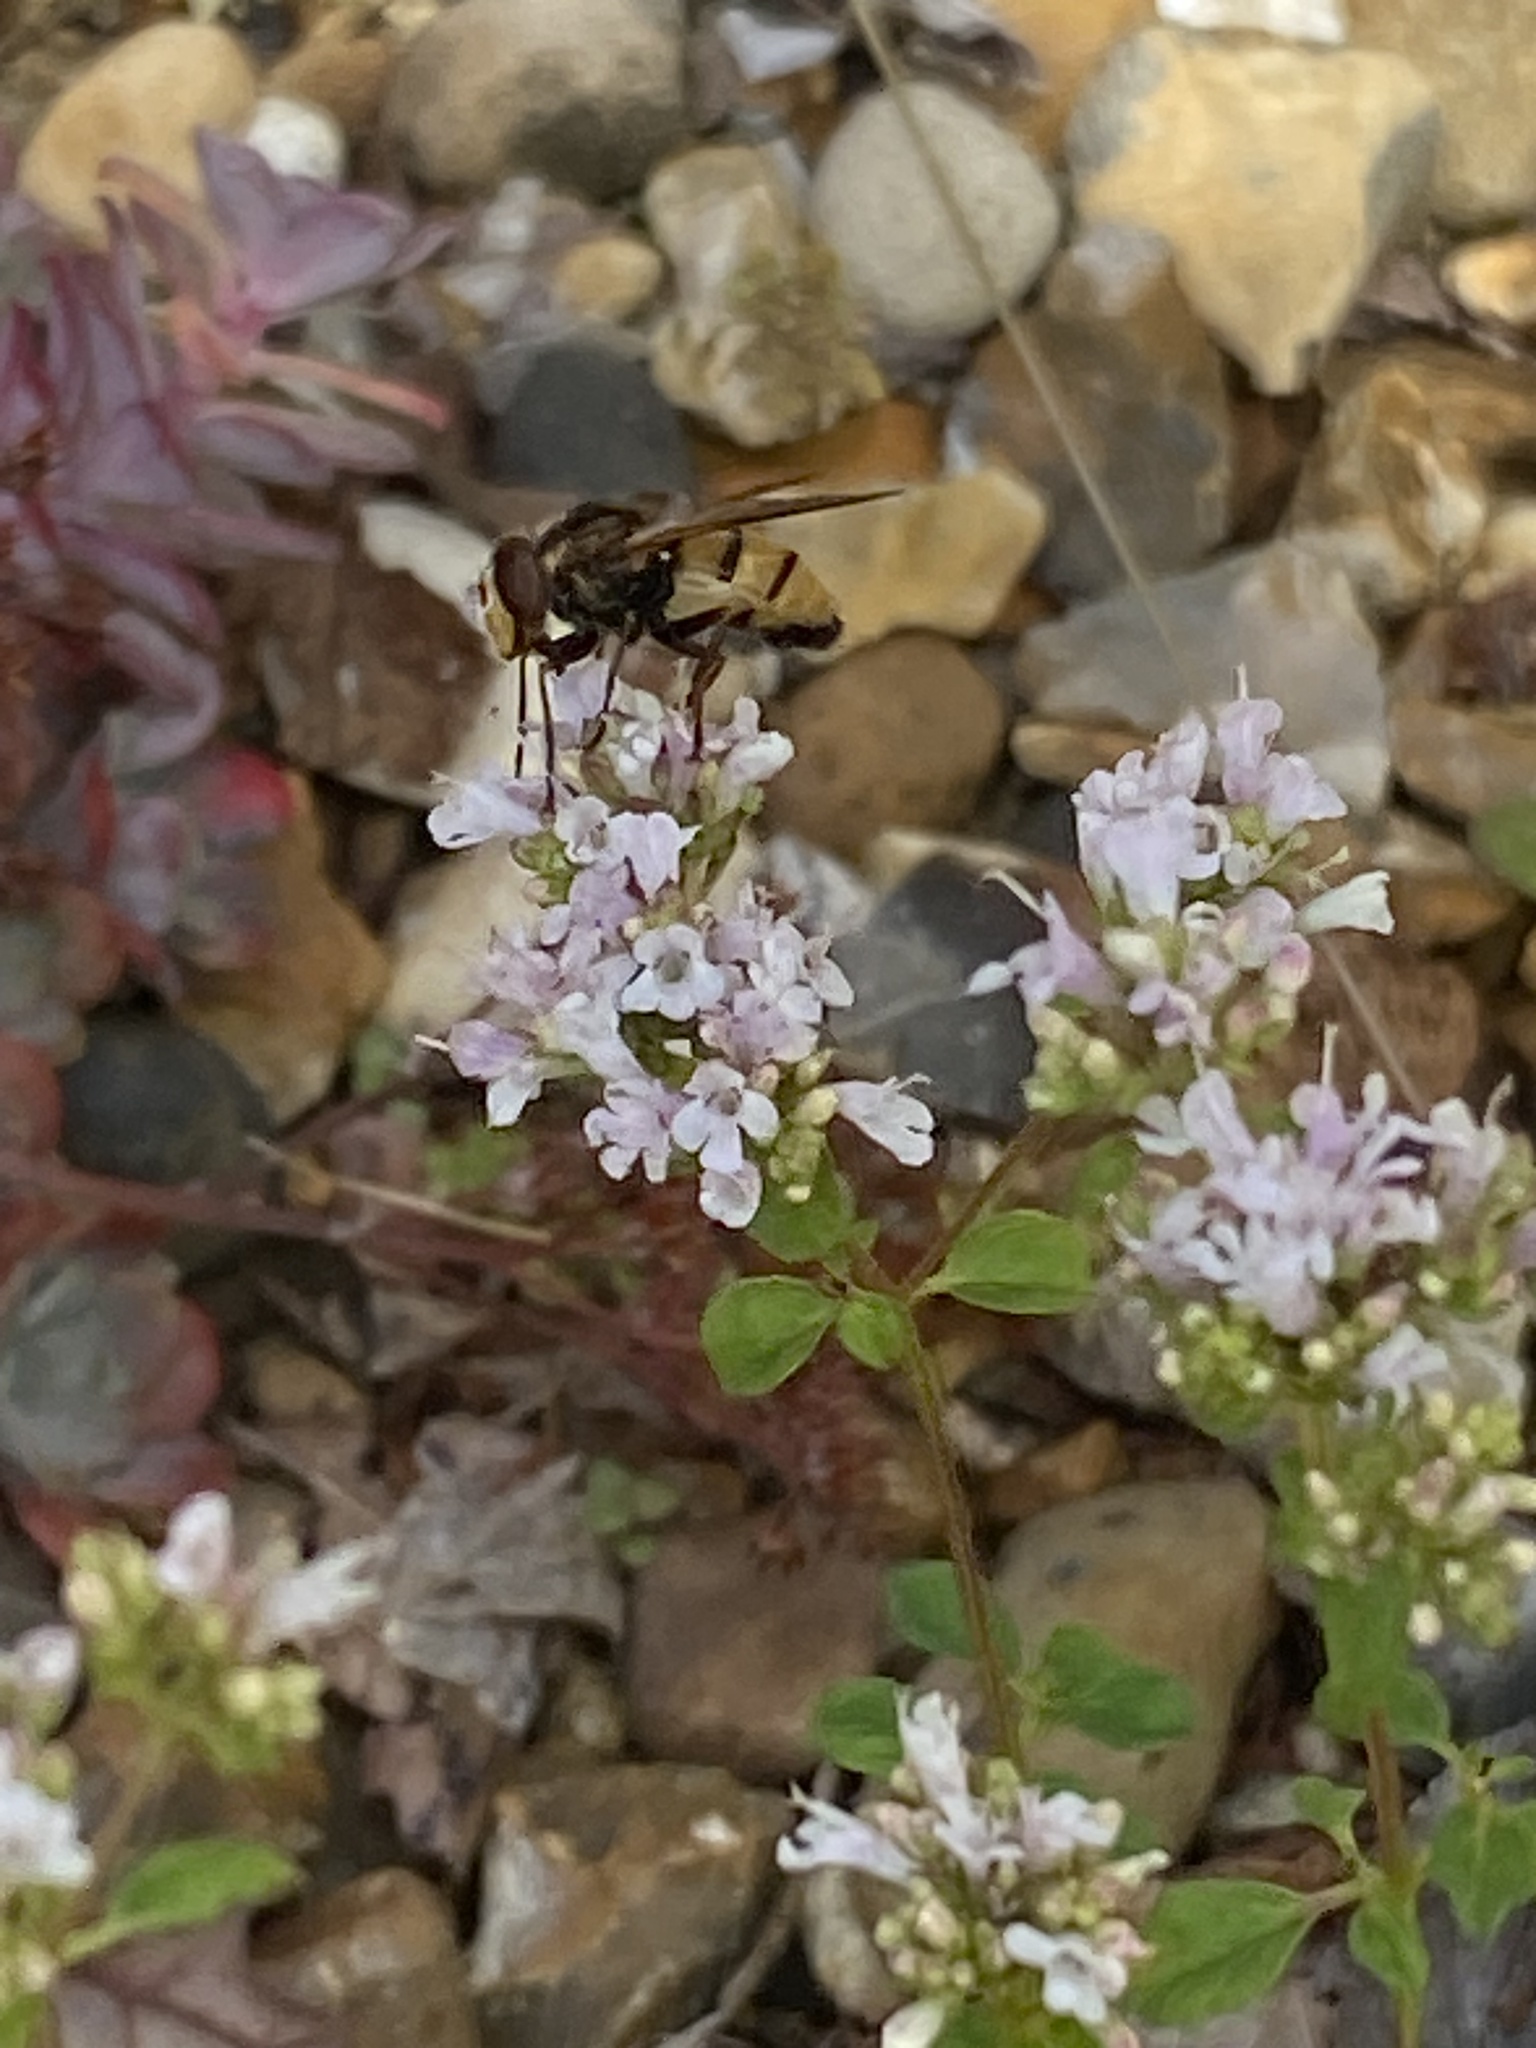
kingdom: Animalia
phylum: Arthropoda
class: Insecta
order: Diptera
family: Syrphidae
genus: Volucella
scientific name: Volucella inanis
